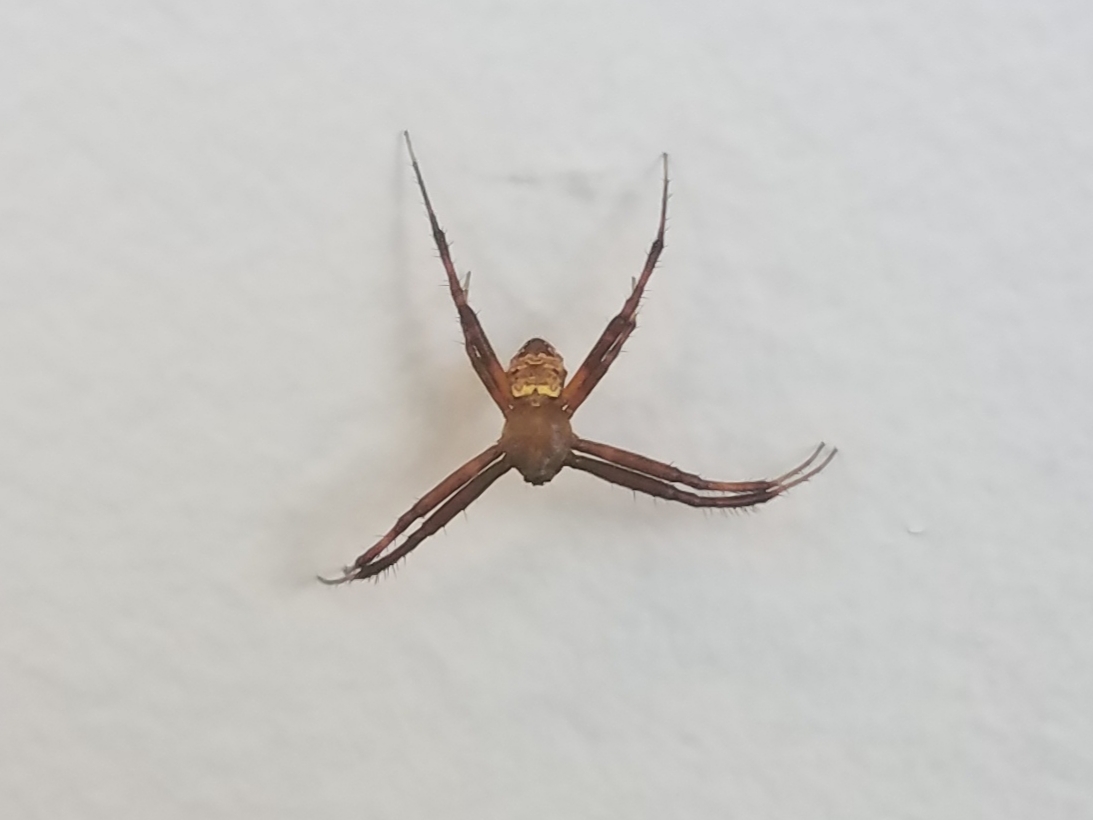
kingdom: Animalia
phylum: Arthropoda
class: Arachnida
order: Araneae
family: Araneidae
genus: Gea
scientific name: Gea heptagon
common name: Orb weavers
